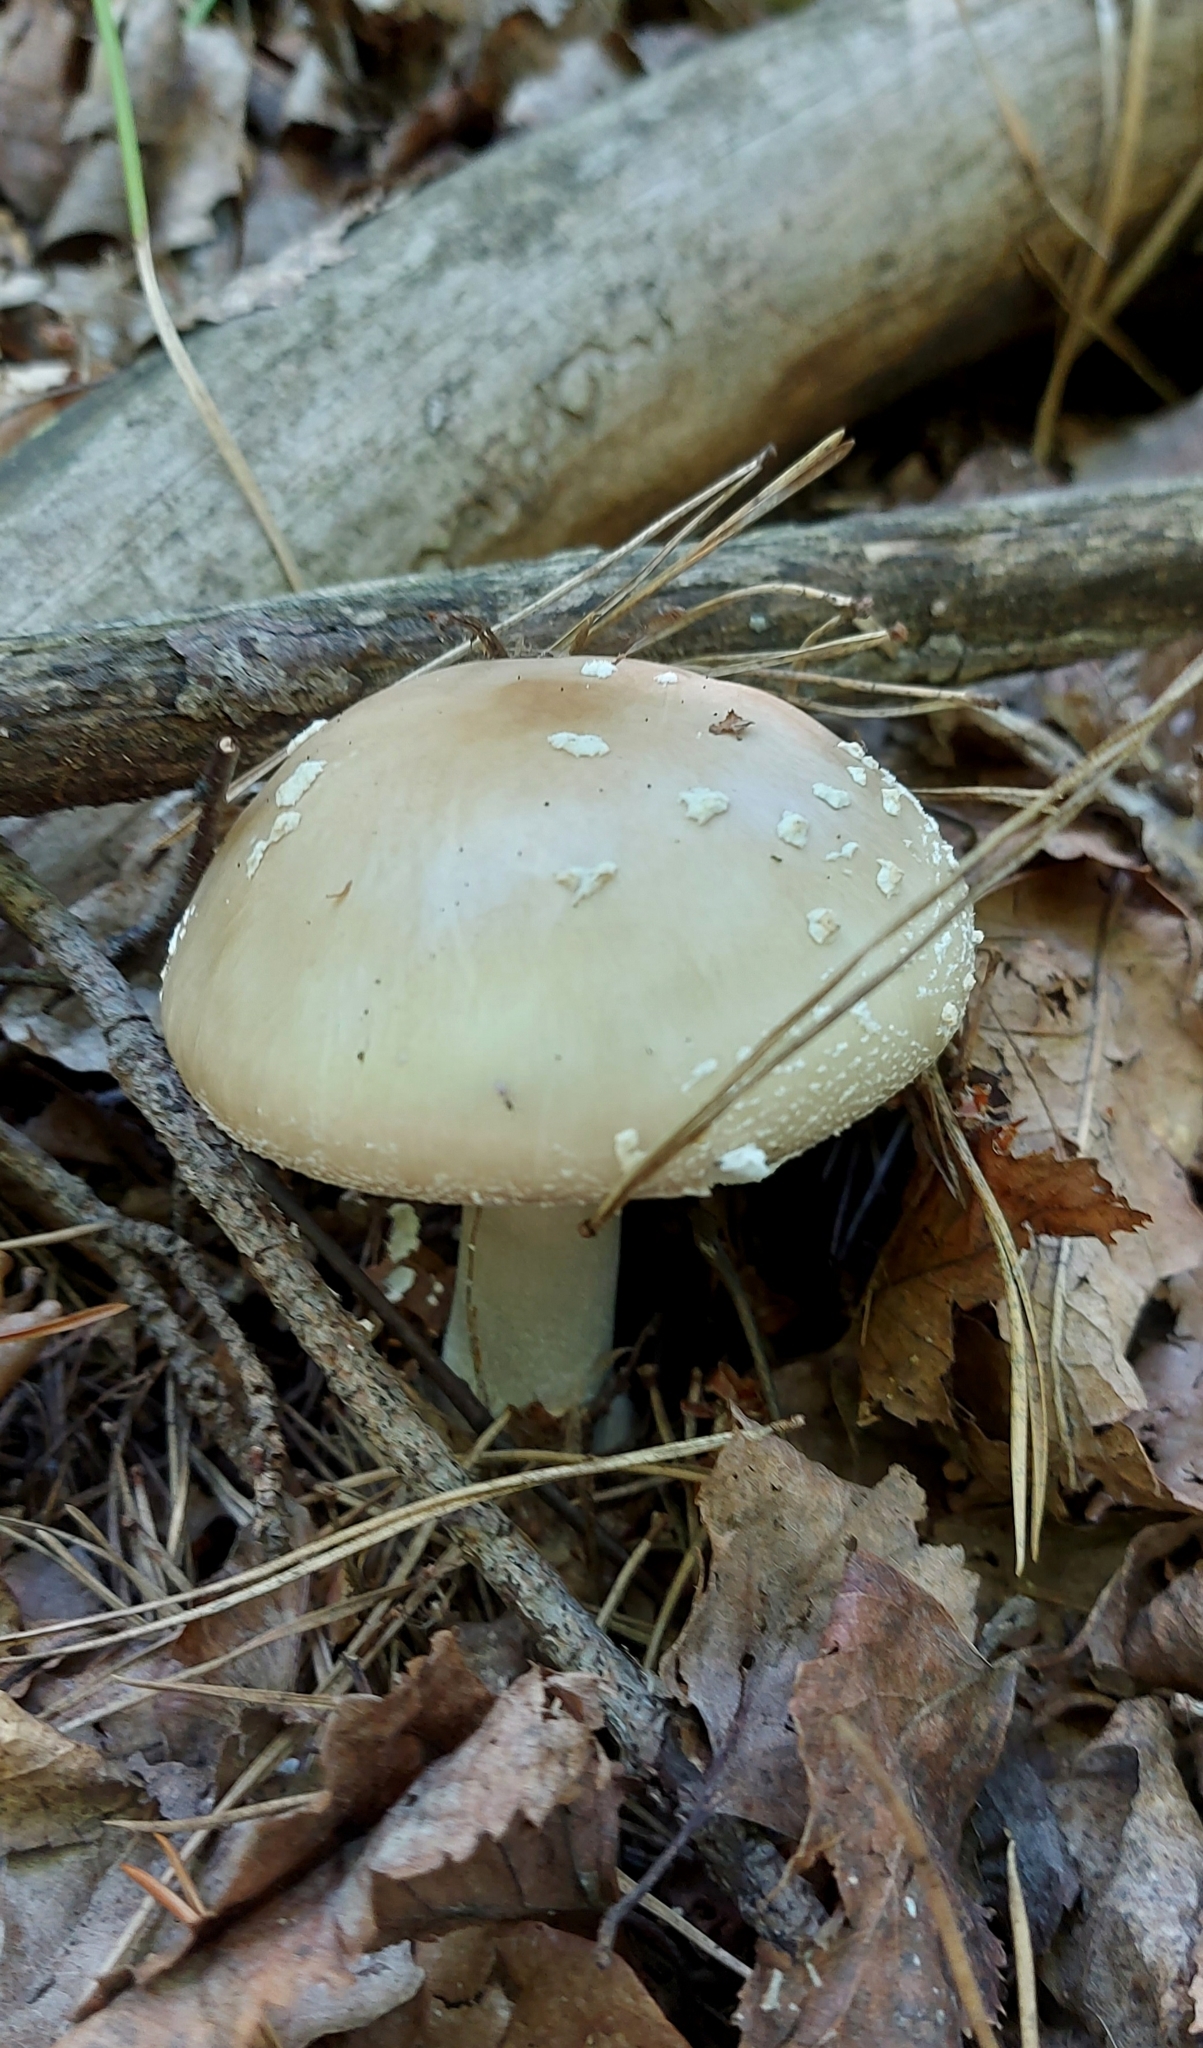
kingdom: Fungi
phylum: Basidiomycota
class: Agaricomycetes
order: Agaricales
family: Amanitaceae
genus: Amanita
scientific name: Amanita pantherina
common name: Panthercap
